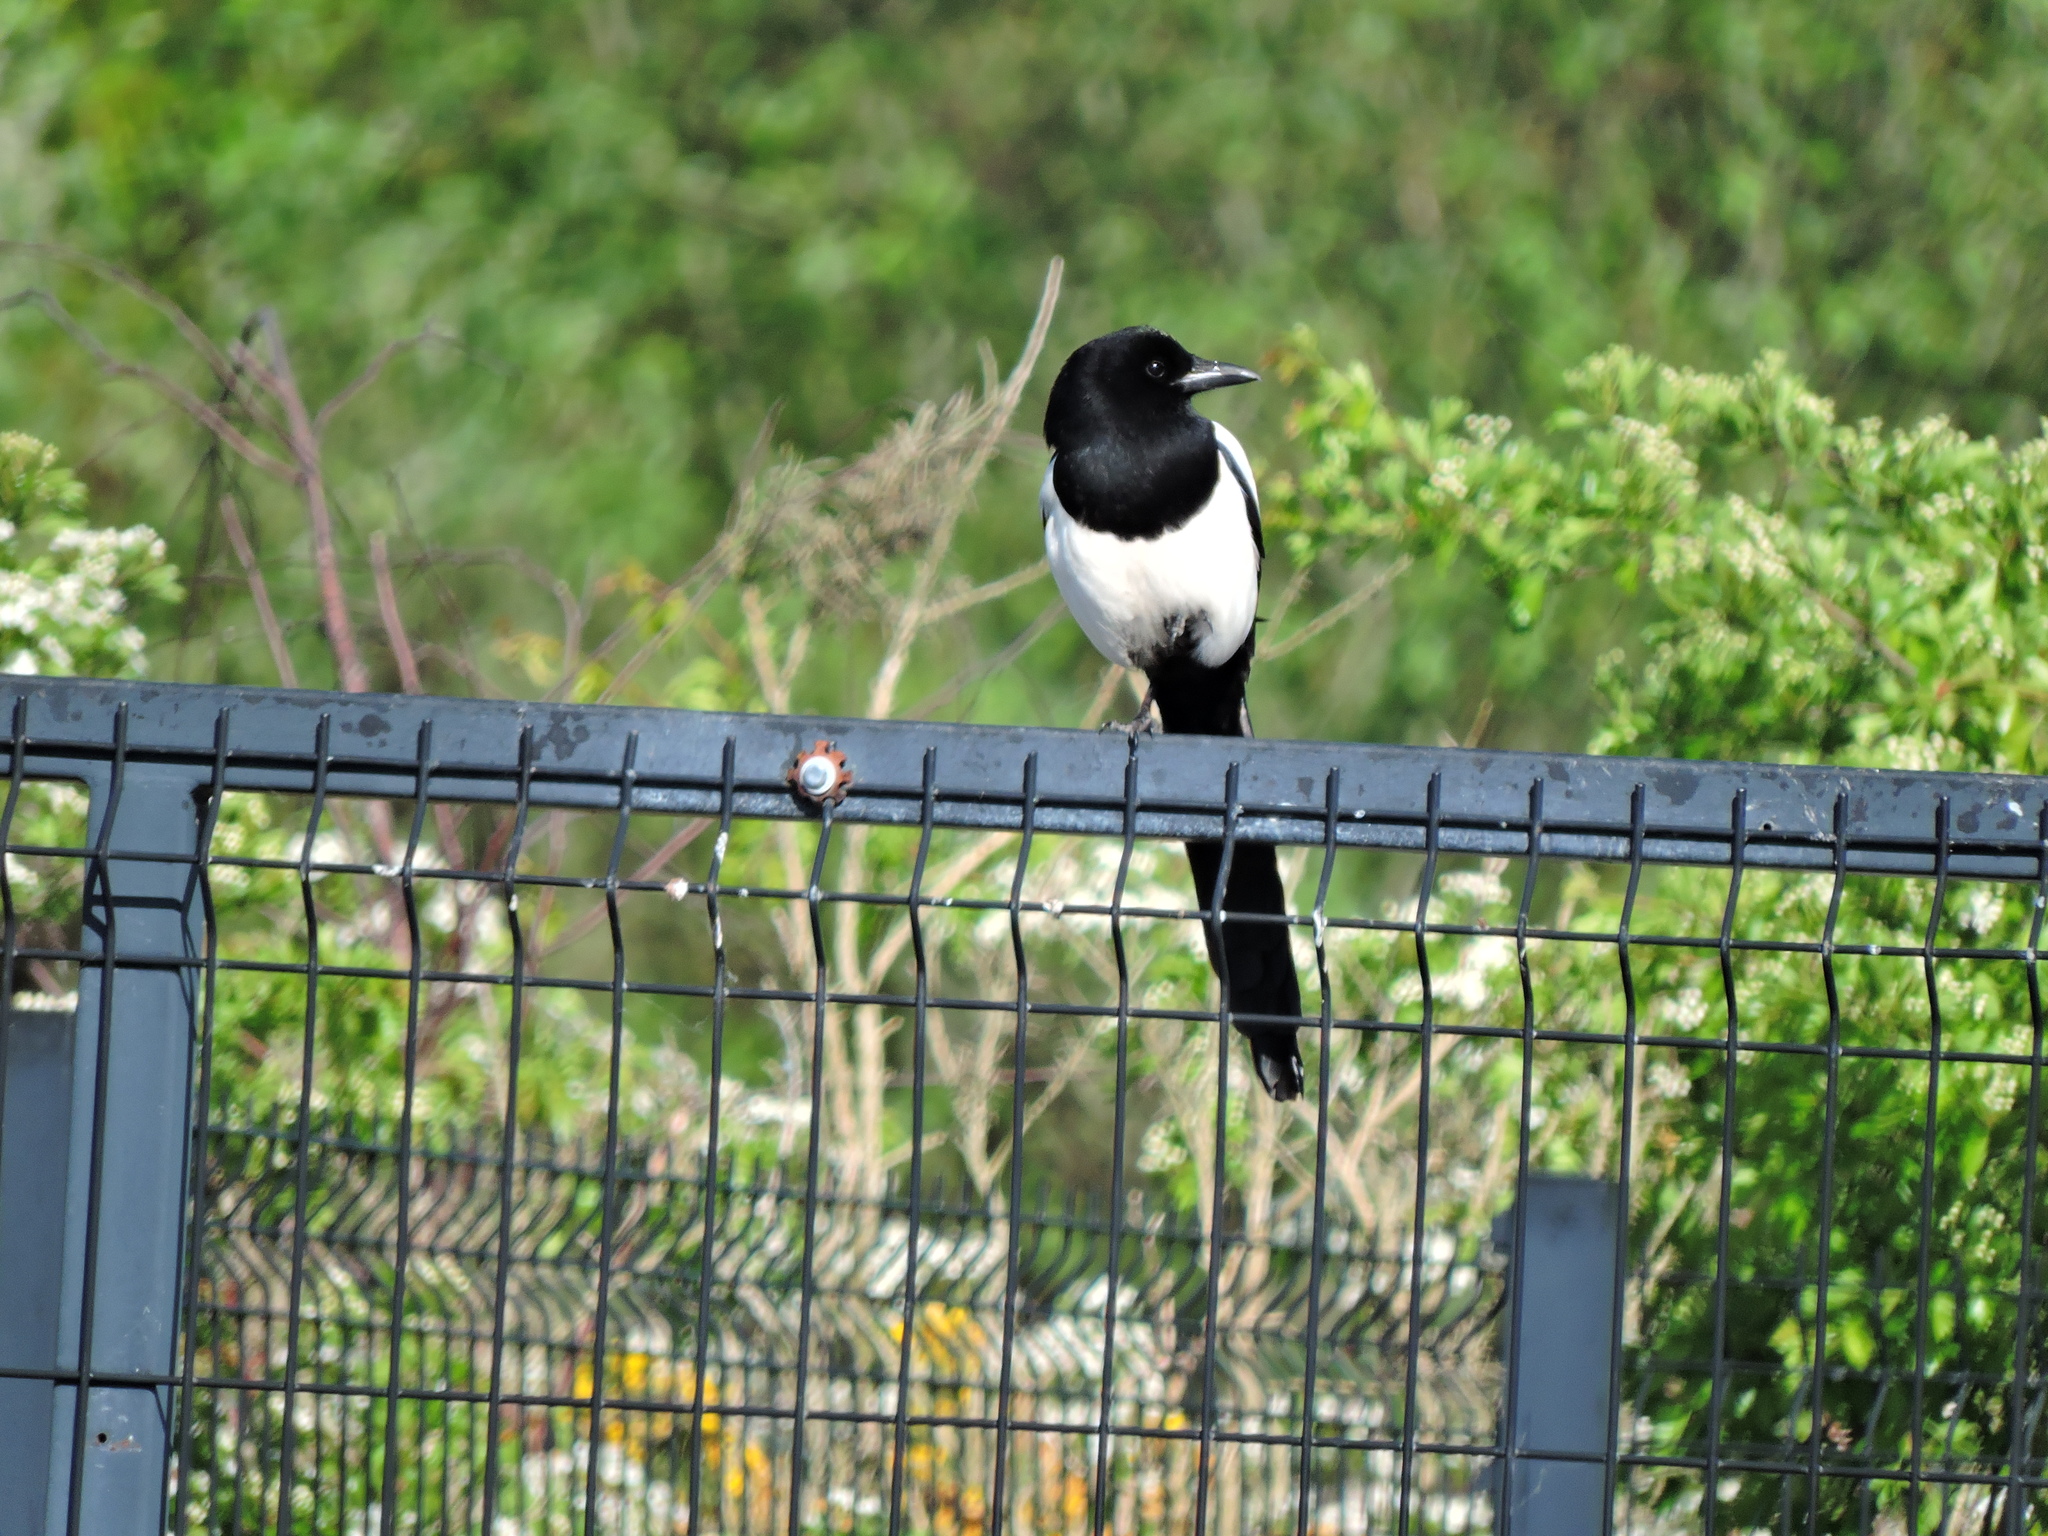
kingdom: Animalia
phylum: Chordata
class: Aves
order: Passeriformes
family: Corvidae
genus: Pica
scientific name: Pica pica
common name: Eurasian magpie
